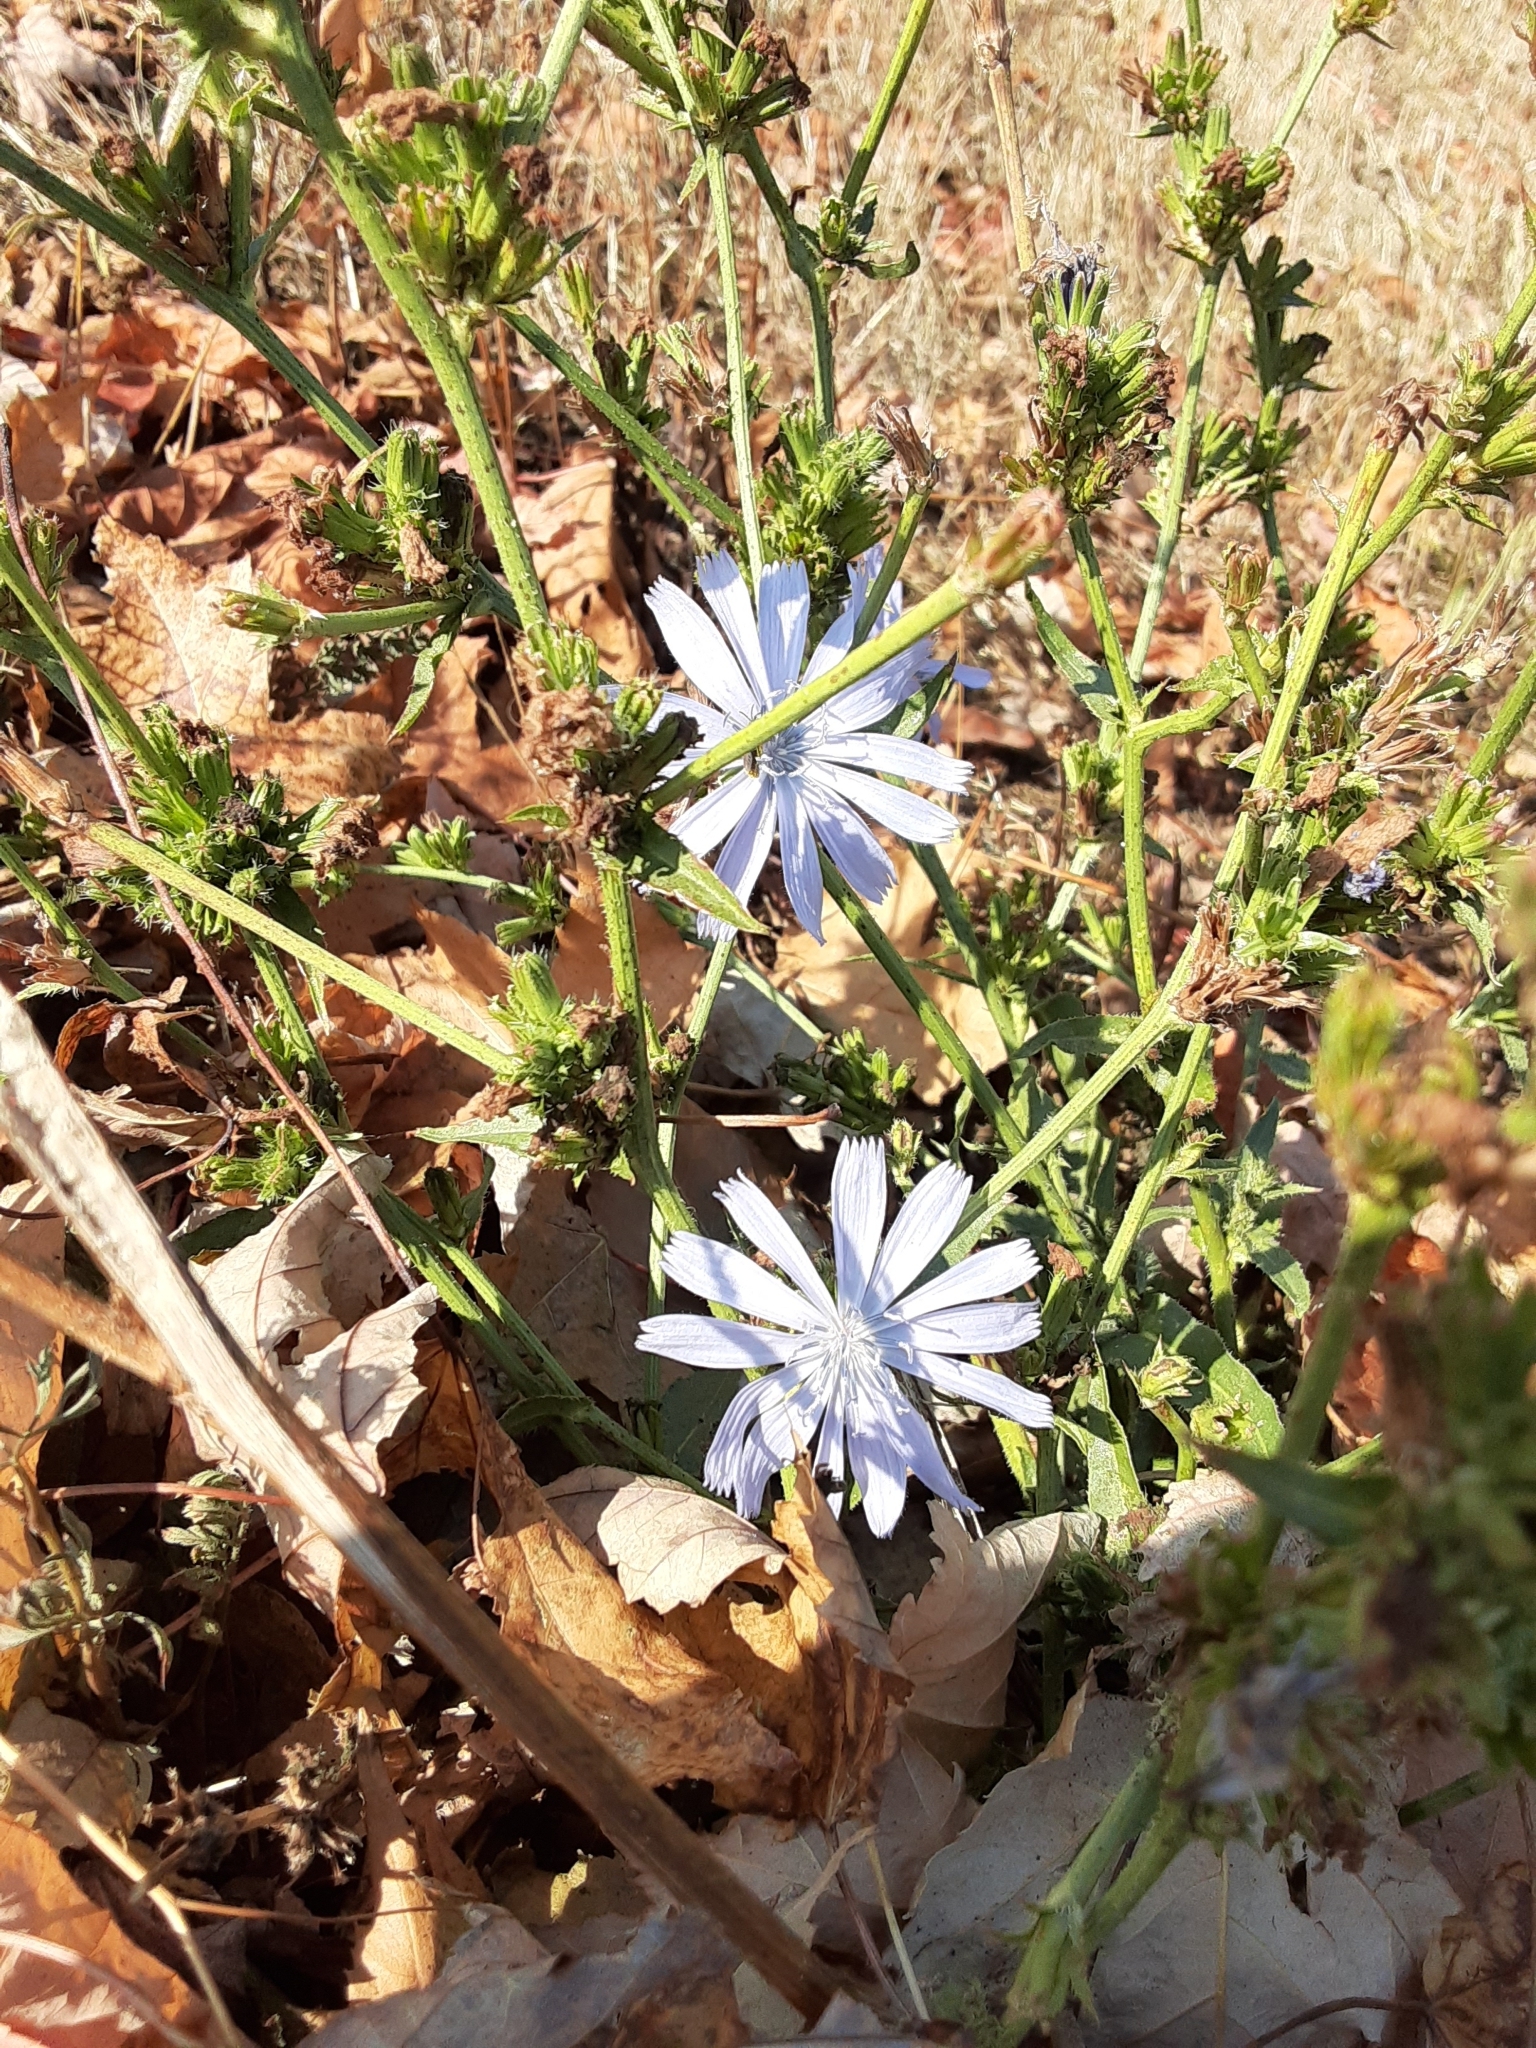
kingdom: Plantae
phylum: Tracheophyta
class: Magnoliopsida
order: Asterales
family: Asteraceae
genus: Cichorium
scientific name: Cichorium intybus
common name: Chicory
